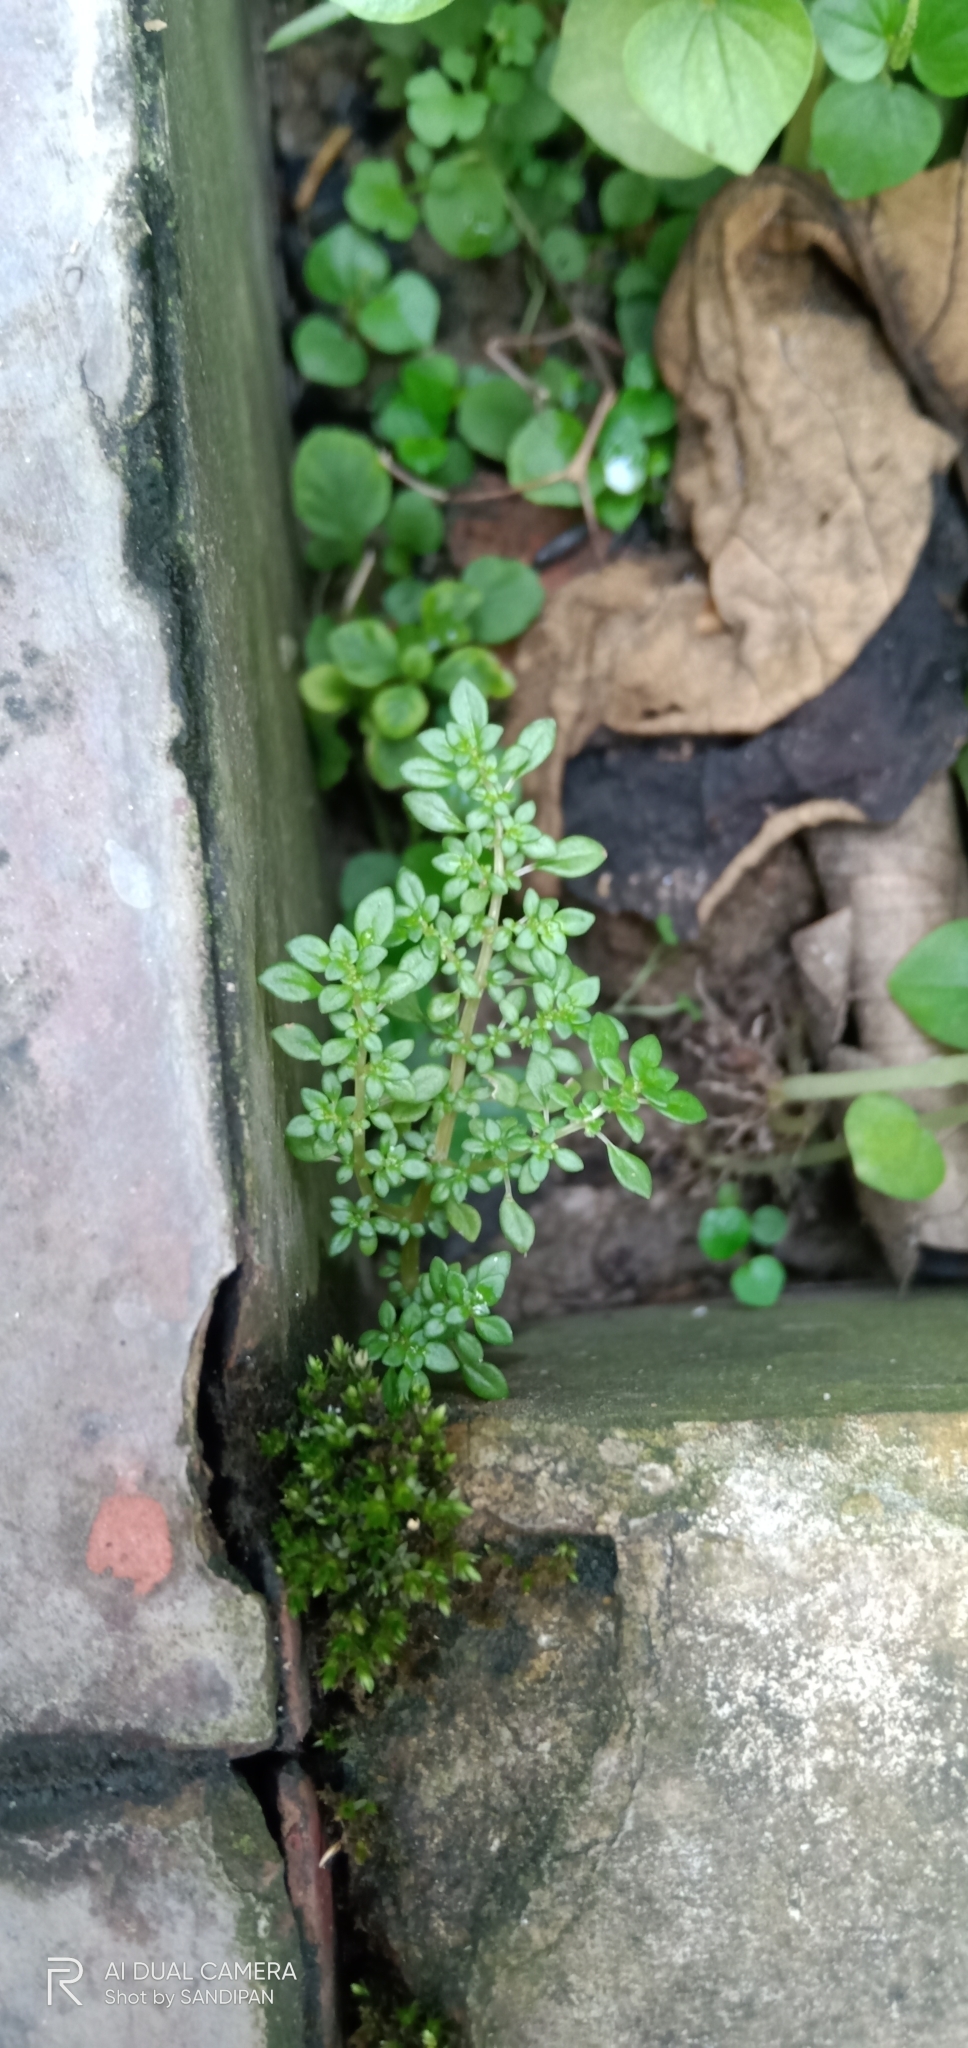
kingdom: Plantae
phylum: Tracheophyta
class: Magnoliopsida
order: Rosales
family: Urticaceae
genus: Pilea
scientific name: Pilea microphylla
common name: Artillery-plant
